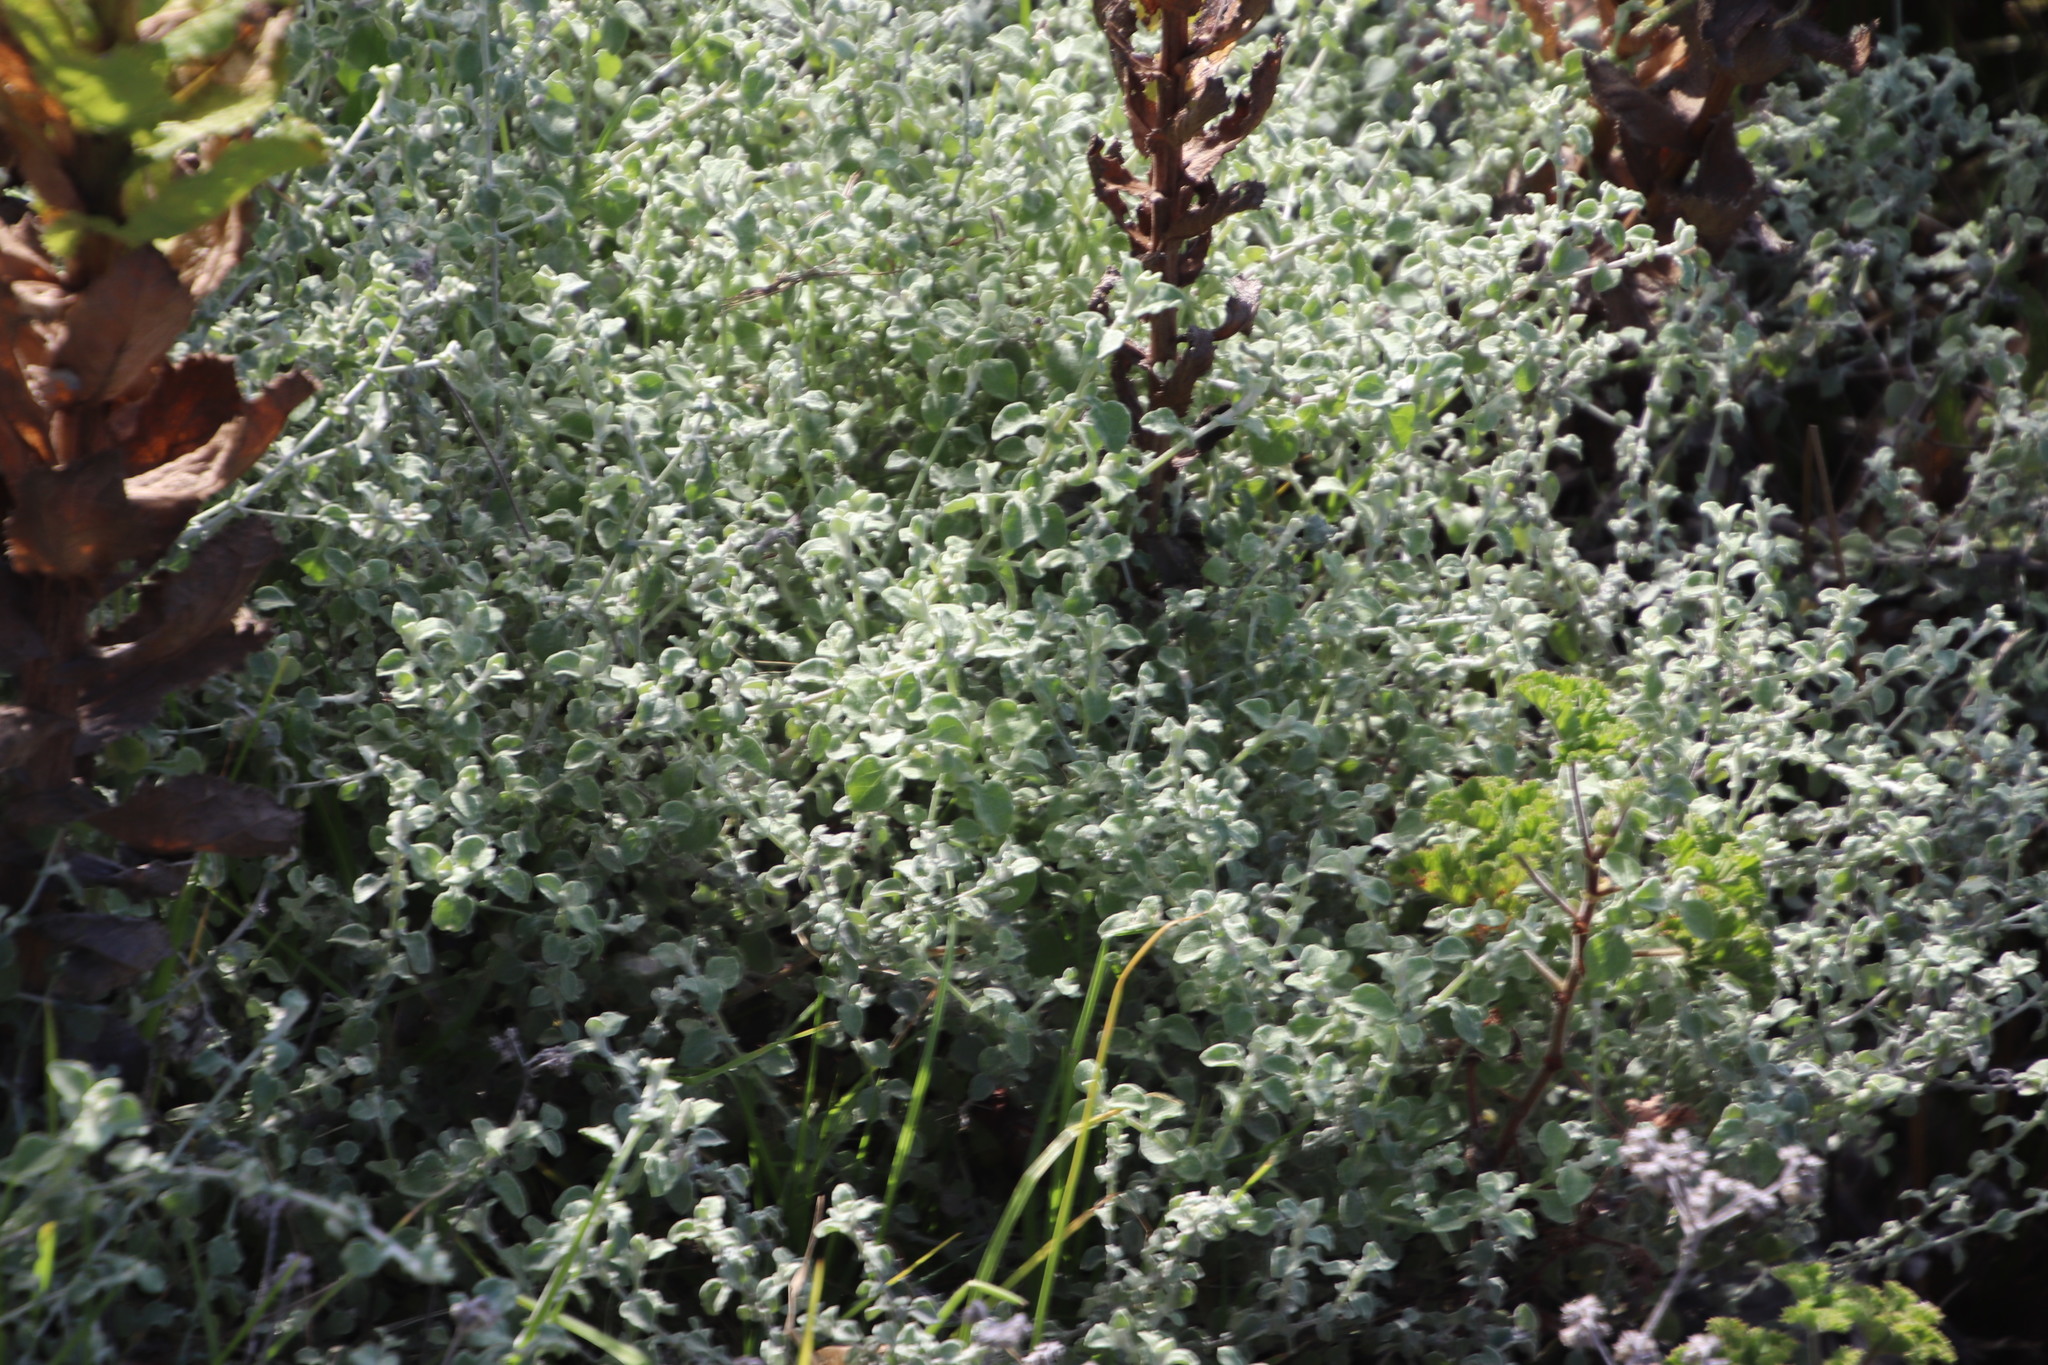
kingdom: Plantae
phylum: Tracheophyta
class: Magnoliopsida
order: Asterales
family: Asteraceae
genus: Helichrysum
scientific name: Helichrysum patulum
